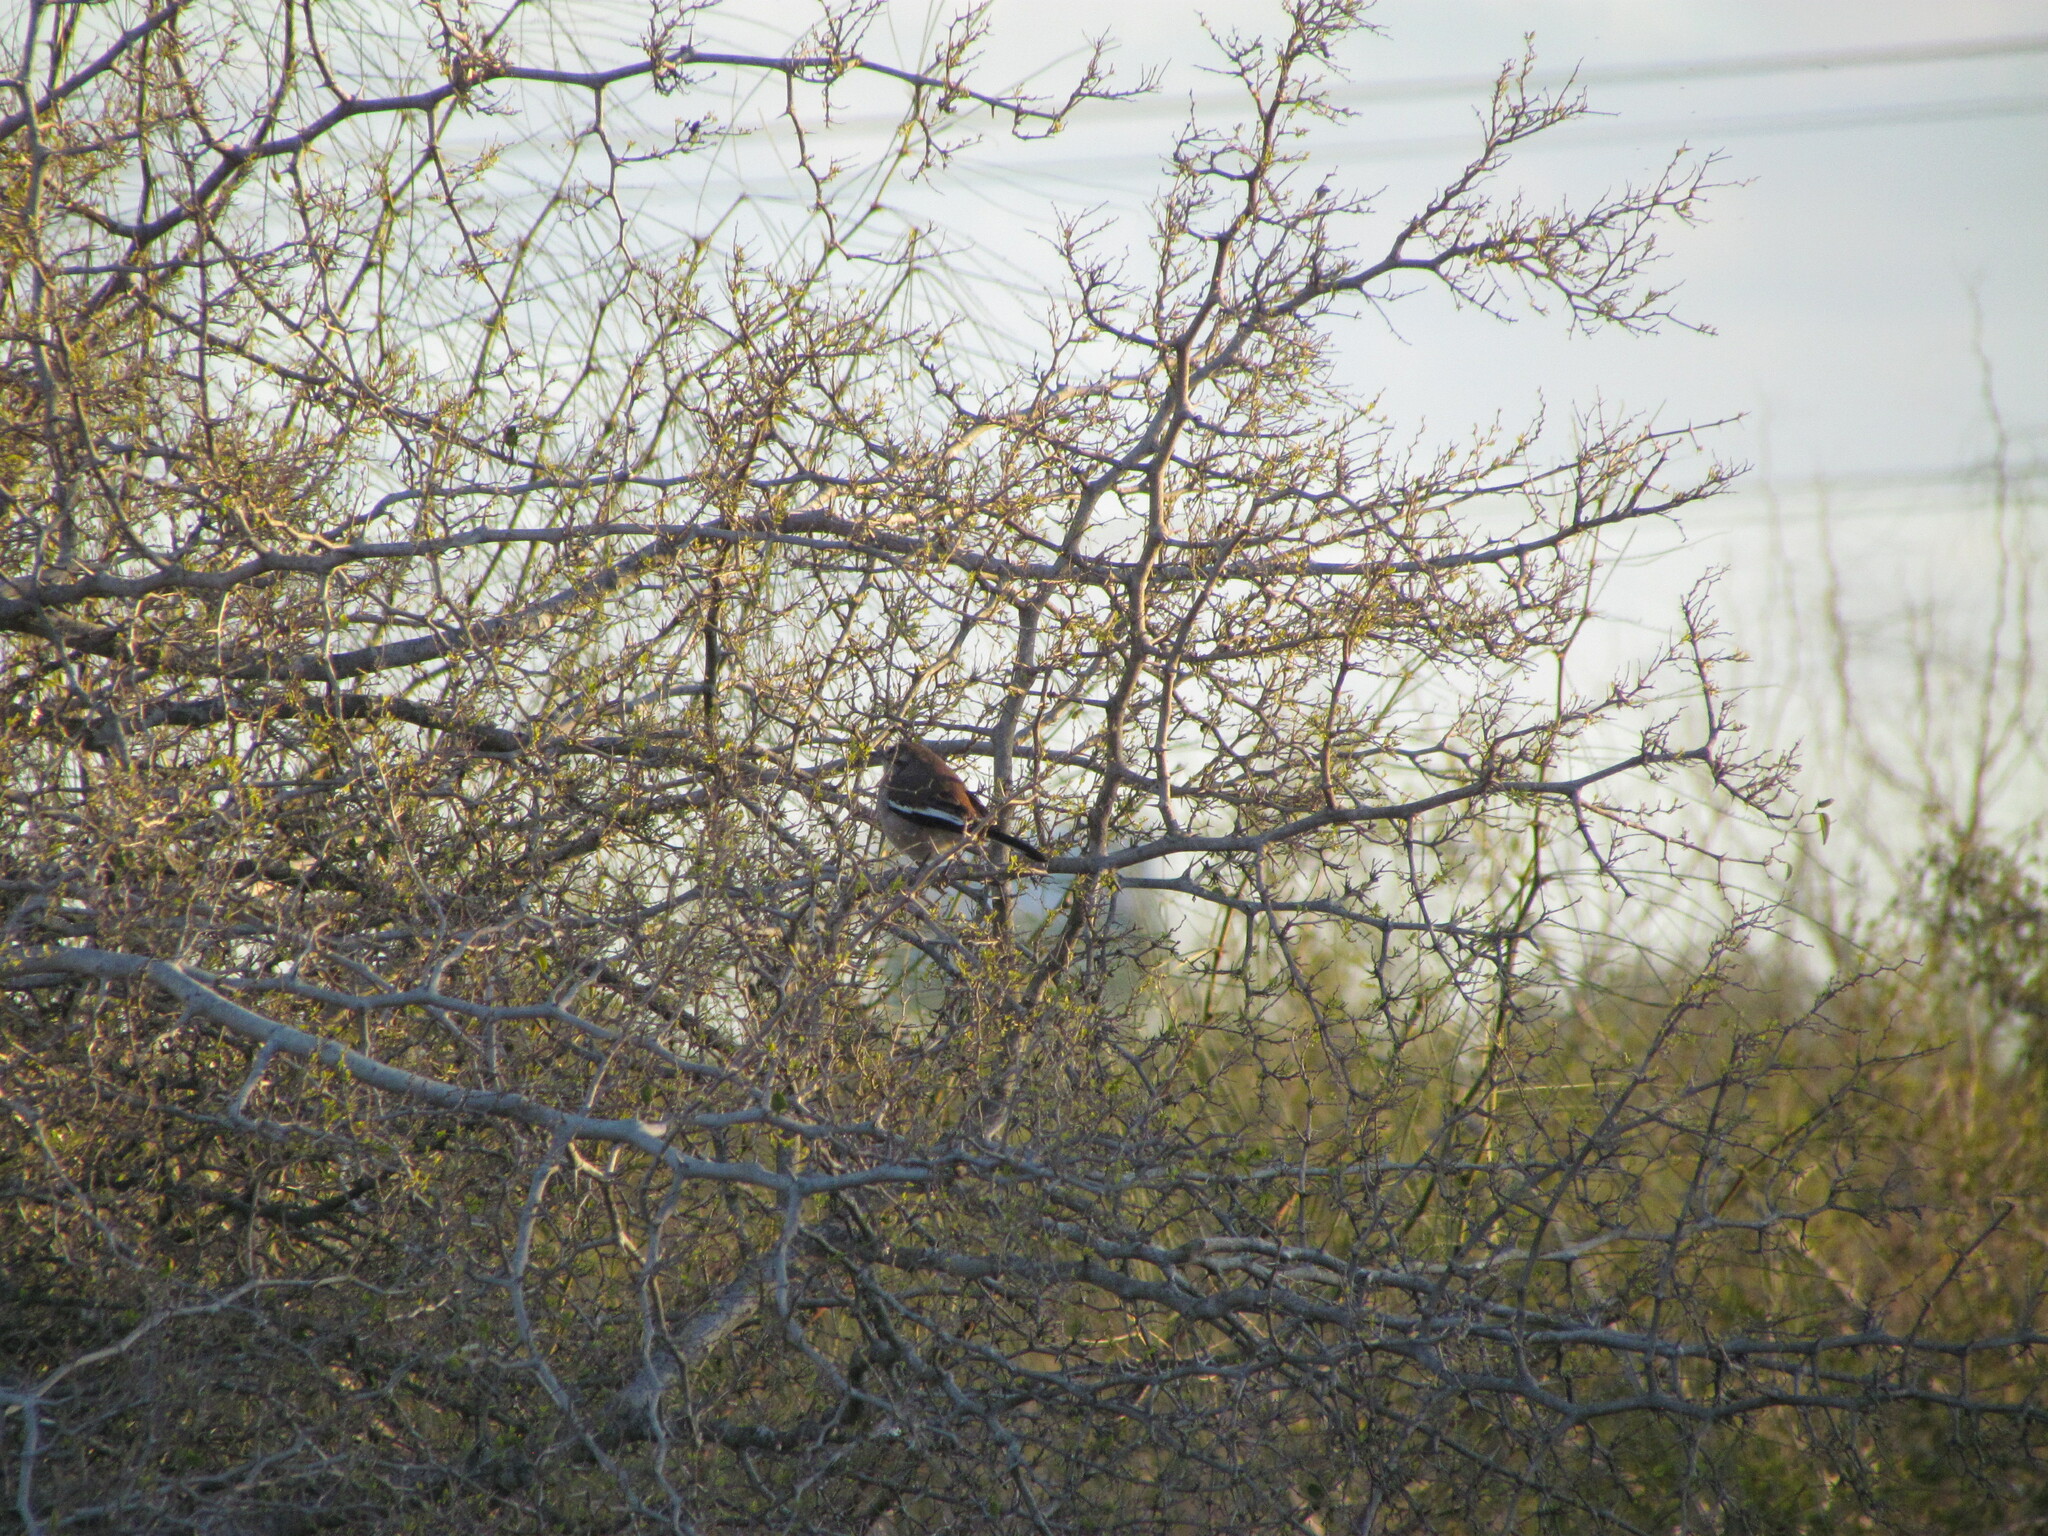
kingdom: Animalia
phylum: Chordata
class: Aves
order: Passeriformes
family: Mimidae
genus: Mimus
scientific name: Mimus triurus
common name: White-banded mockingbird
